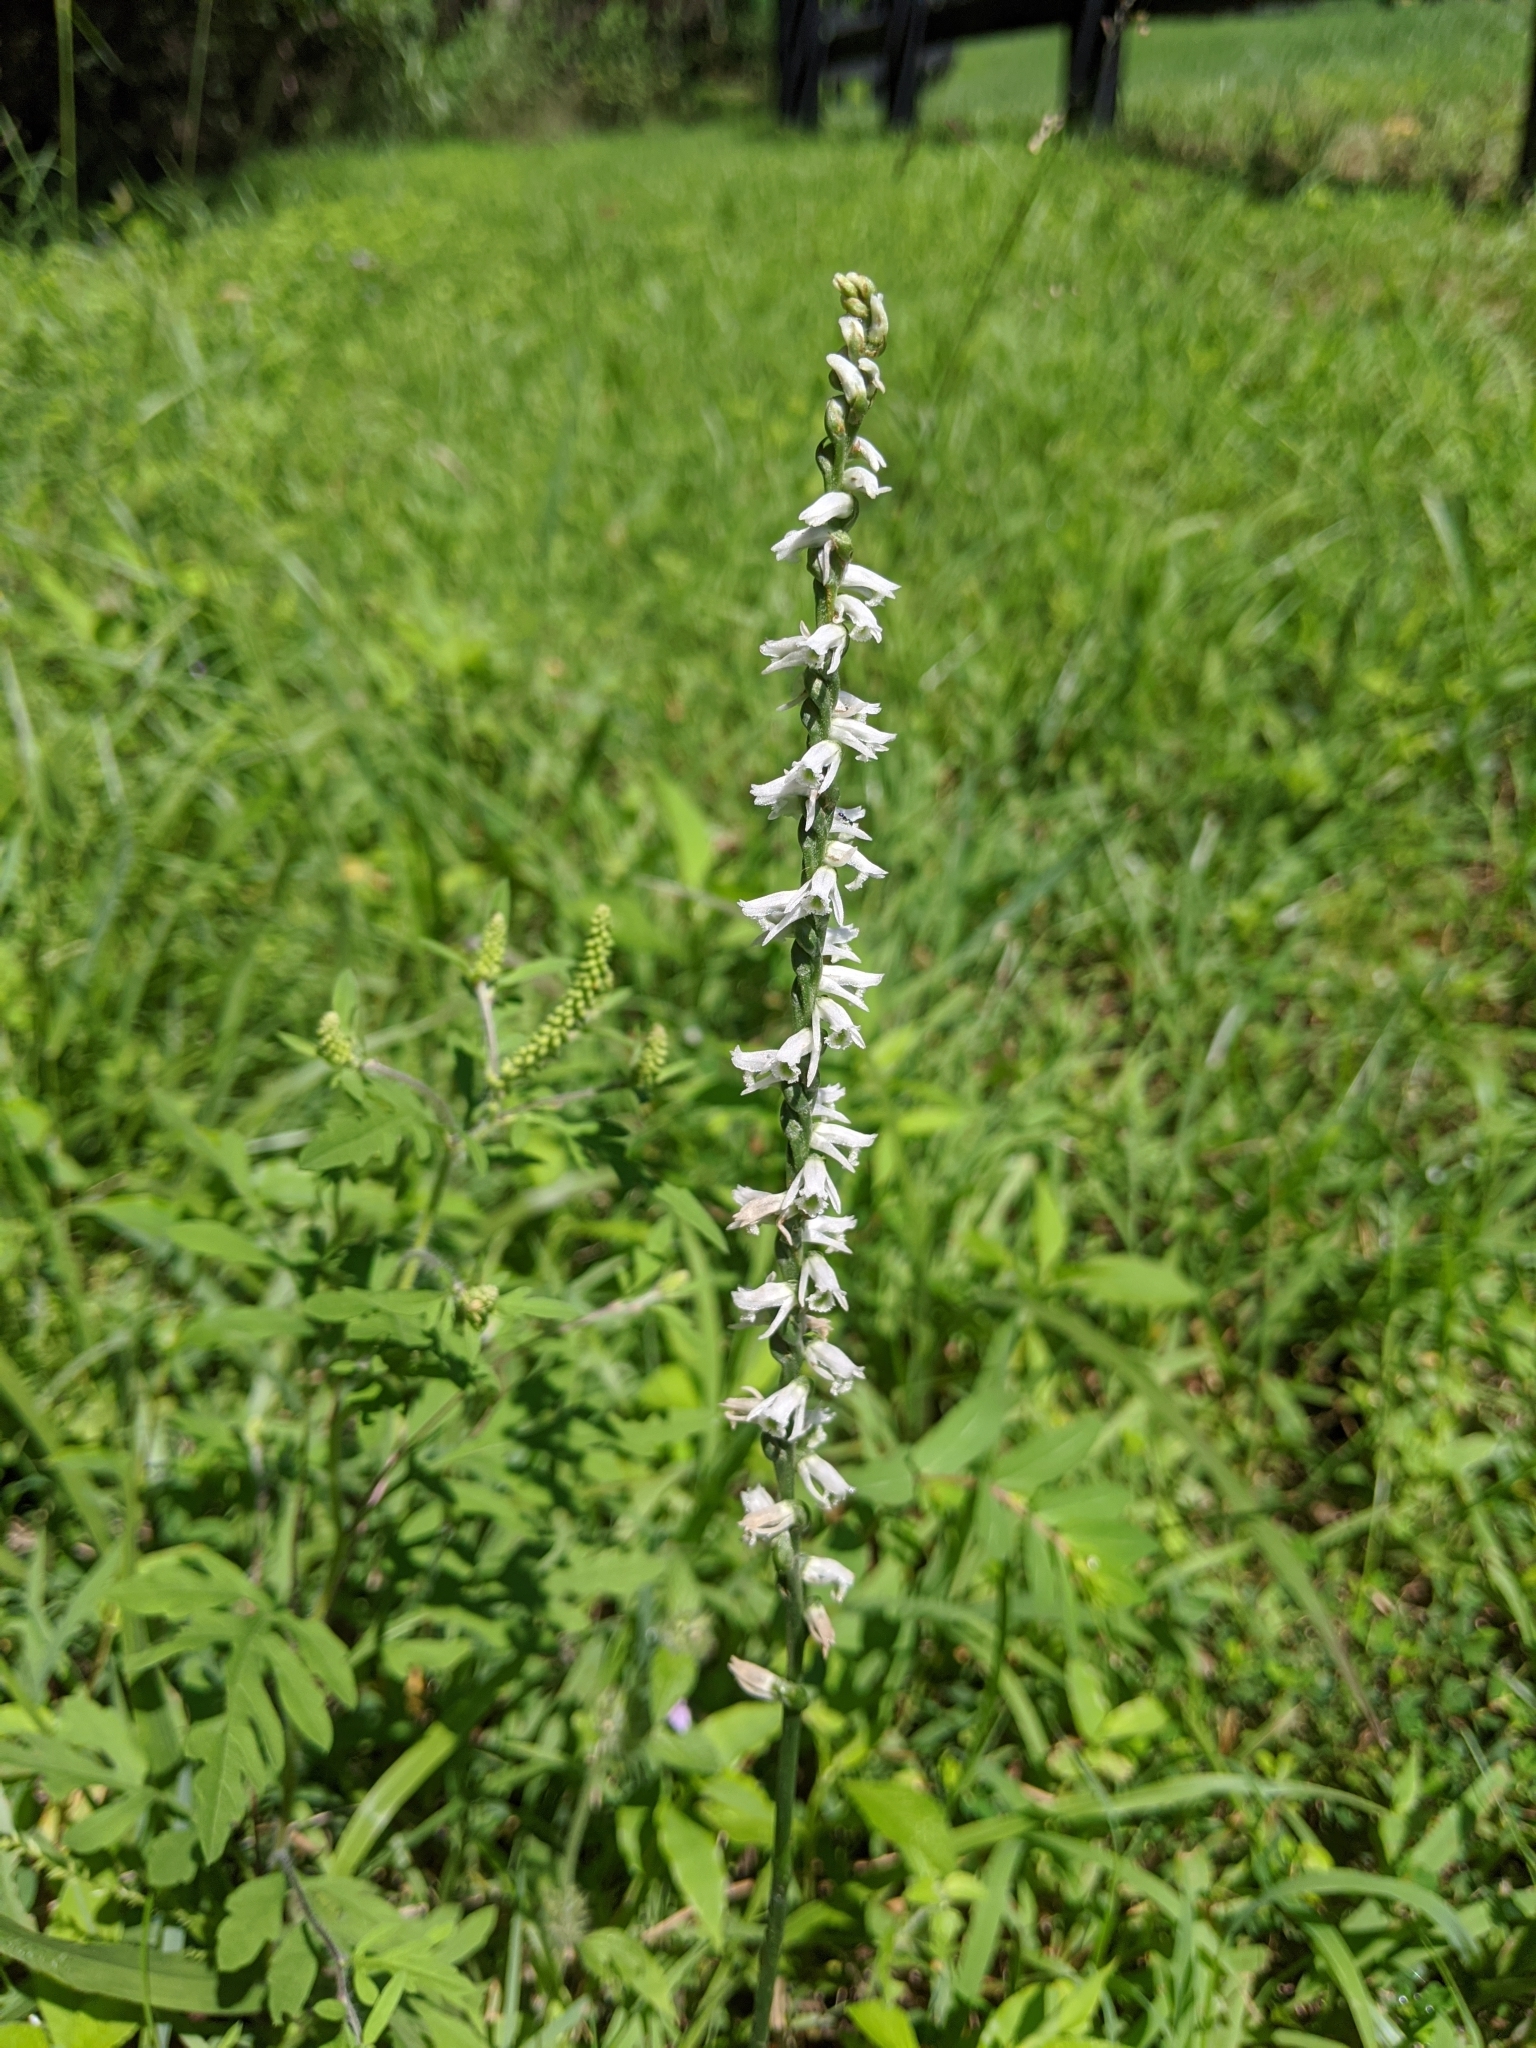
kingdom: Plantae
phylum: Tracheophyta
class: Liliopsida
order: Asparagales
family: Orchidaceae
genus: Spiranthes
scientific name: Spiranthes lacera
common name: Northern slender ladies'-tresses
